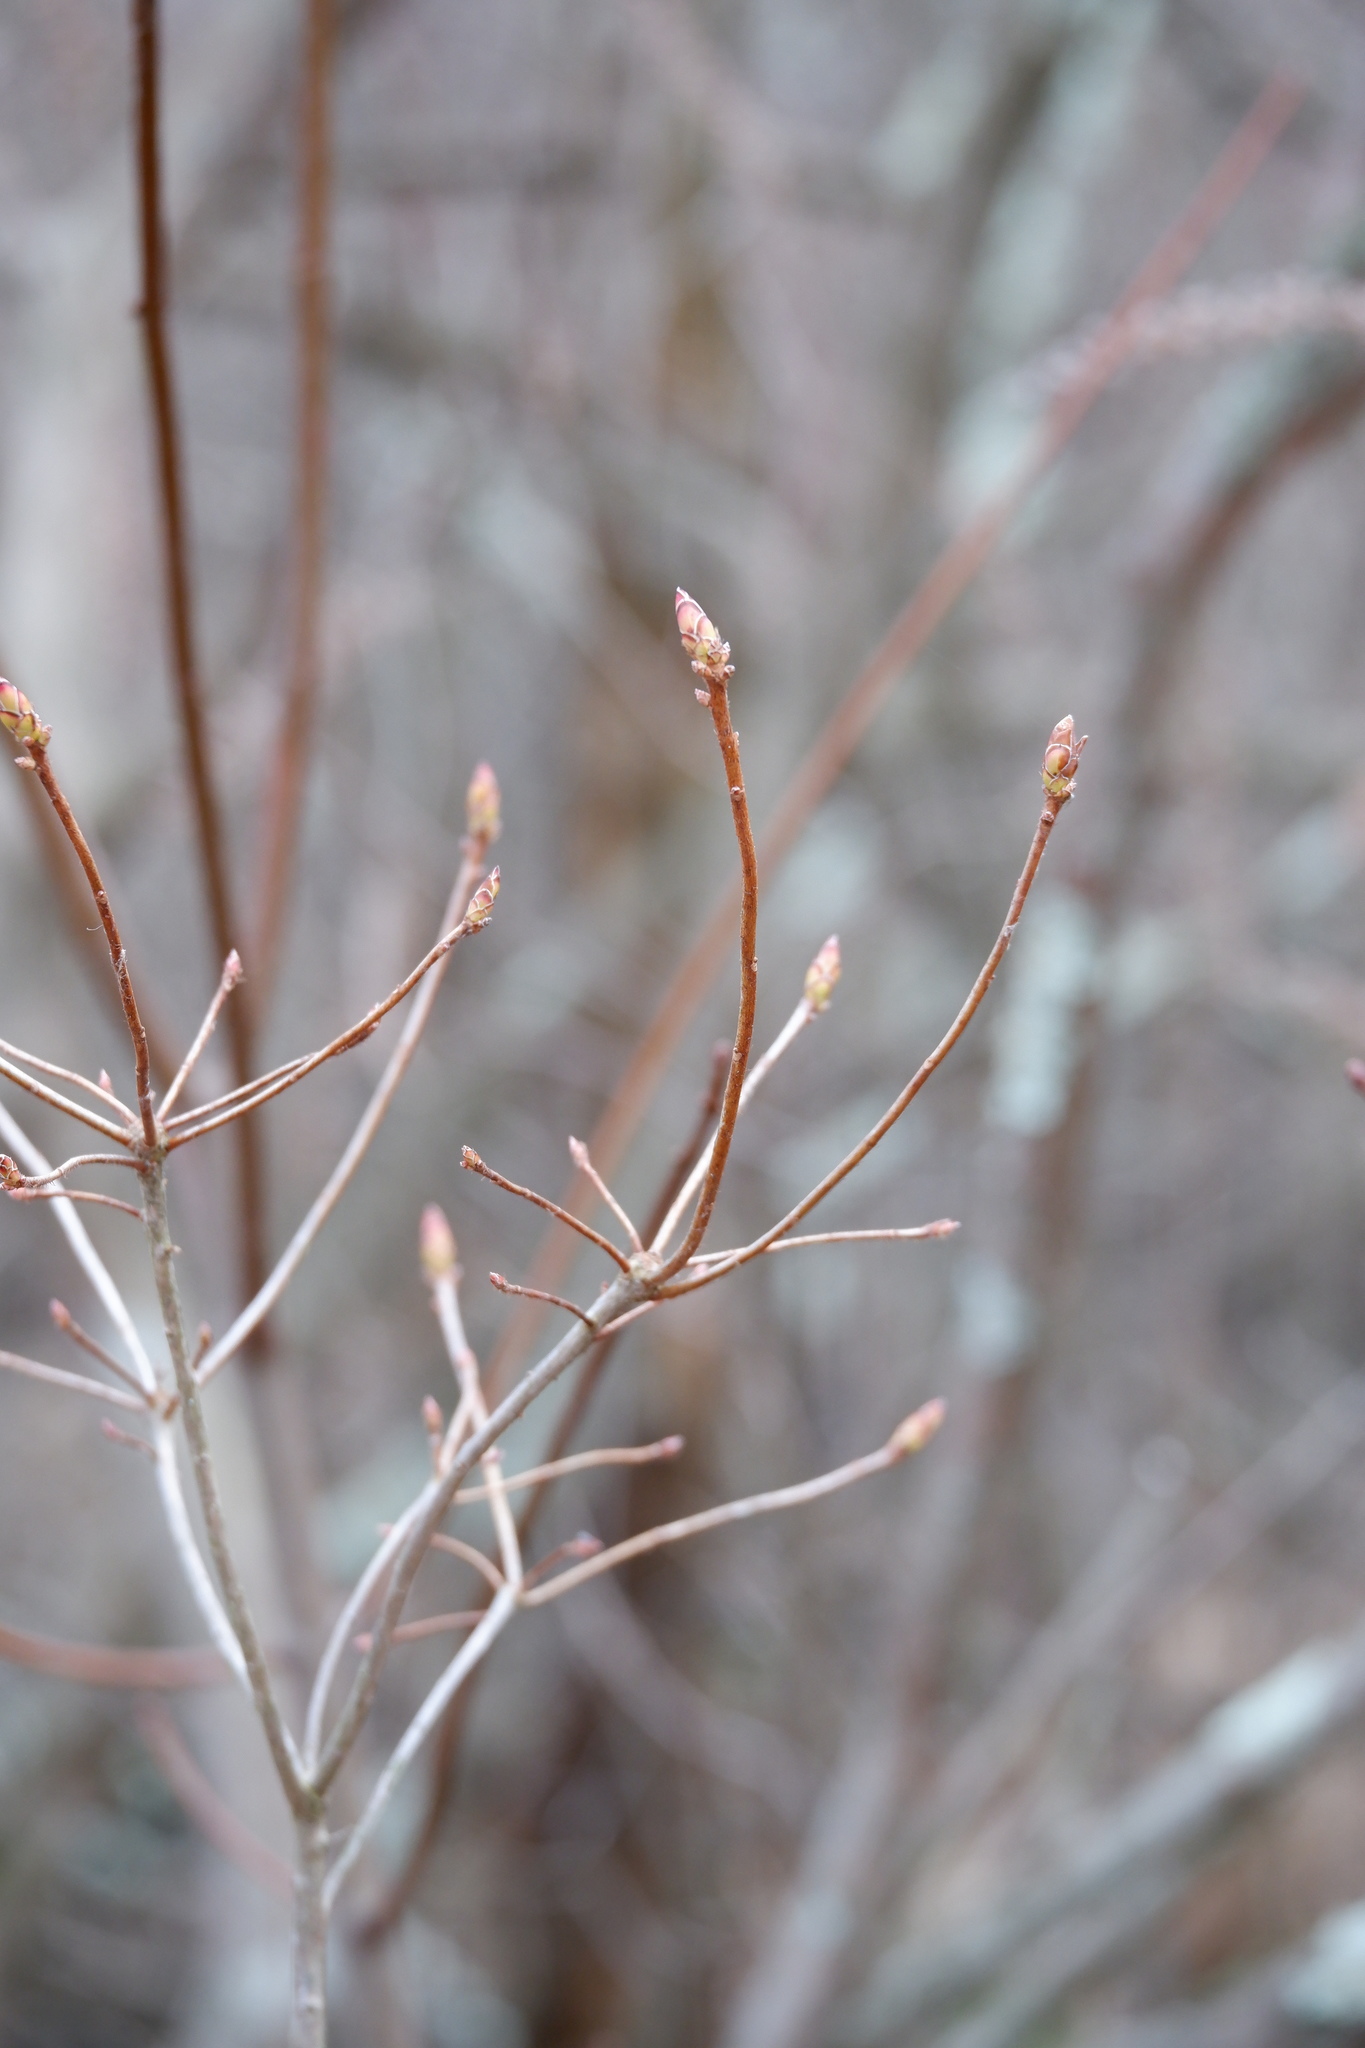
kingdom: Plantae
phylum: Tracheophyta
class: Magnoliopsida
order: Ericales
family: Ericaceae
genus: Rhododendron
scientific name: Rhododendron viscosum
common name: Clammy azalea
